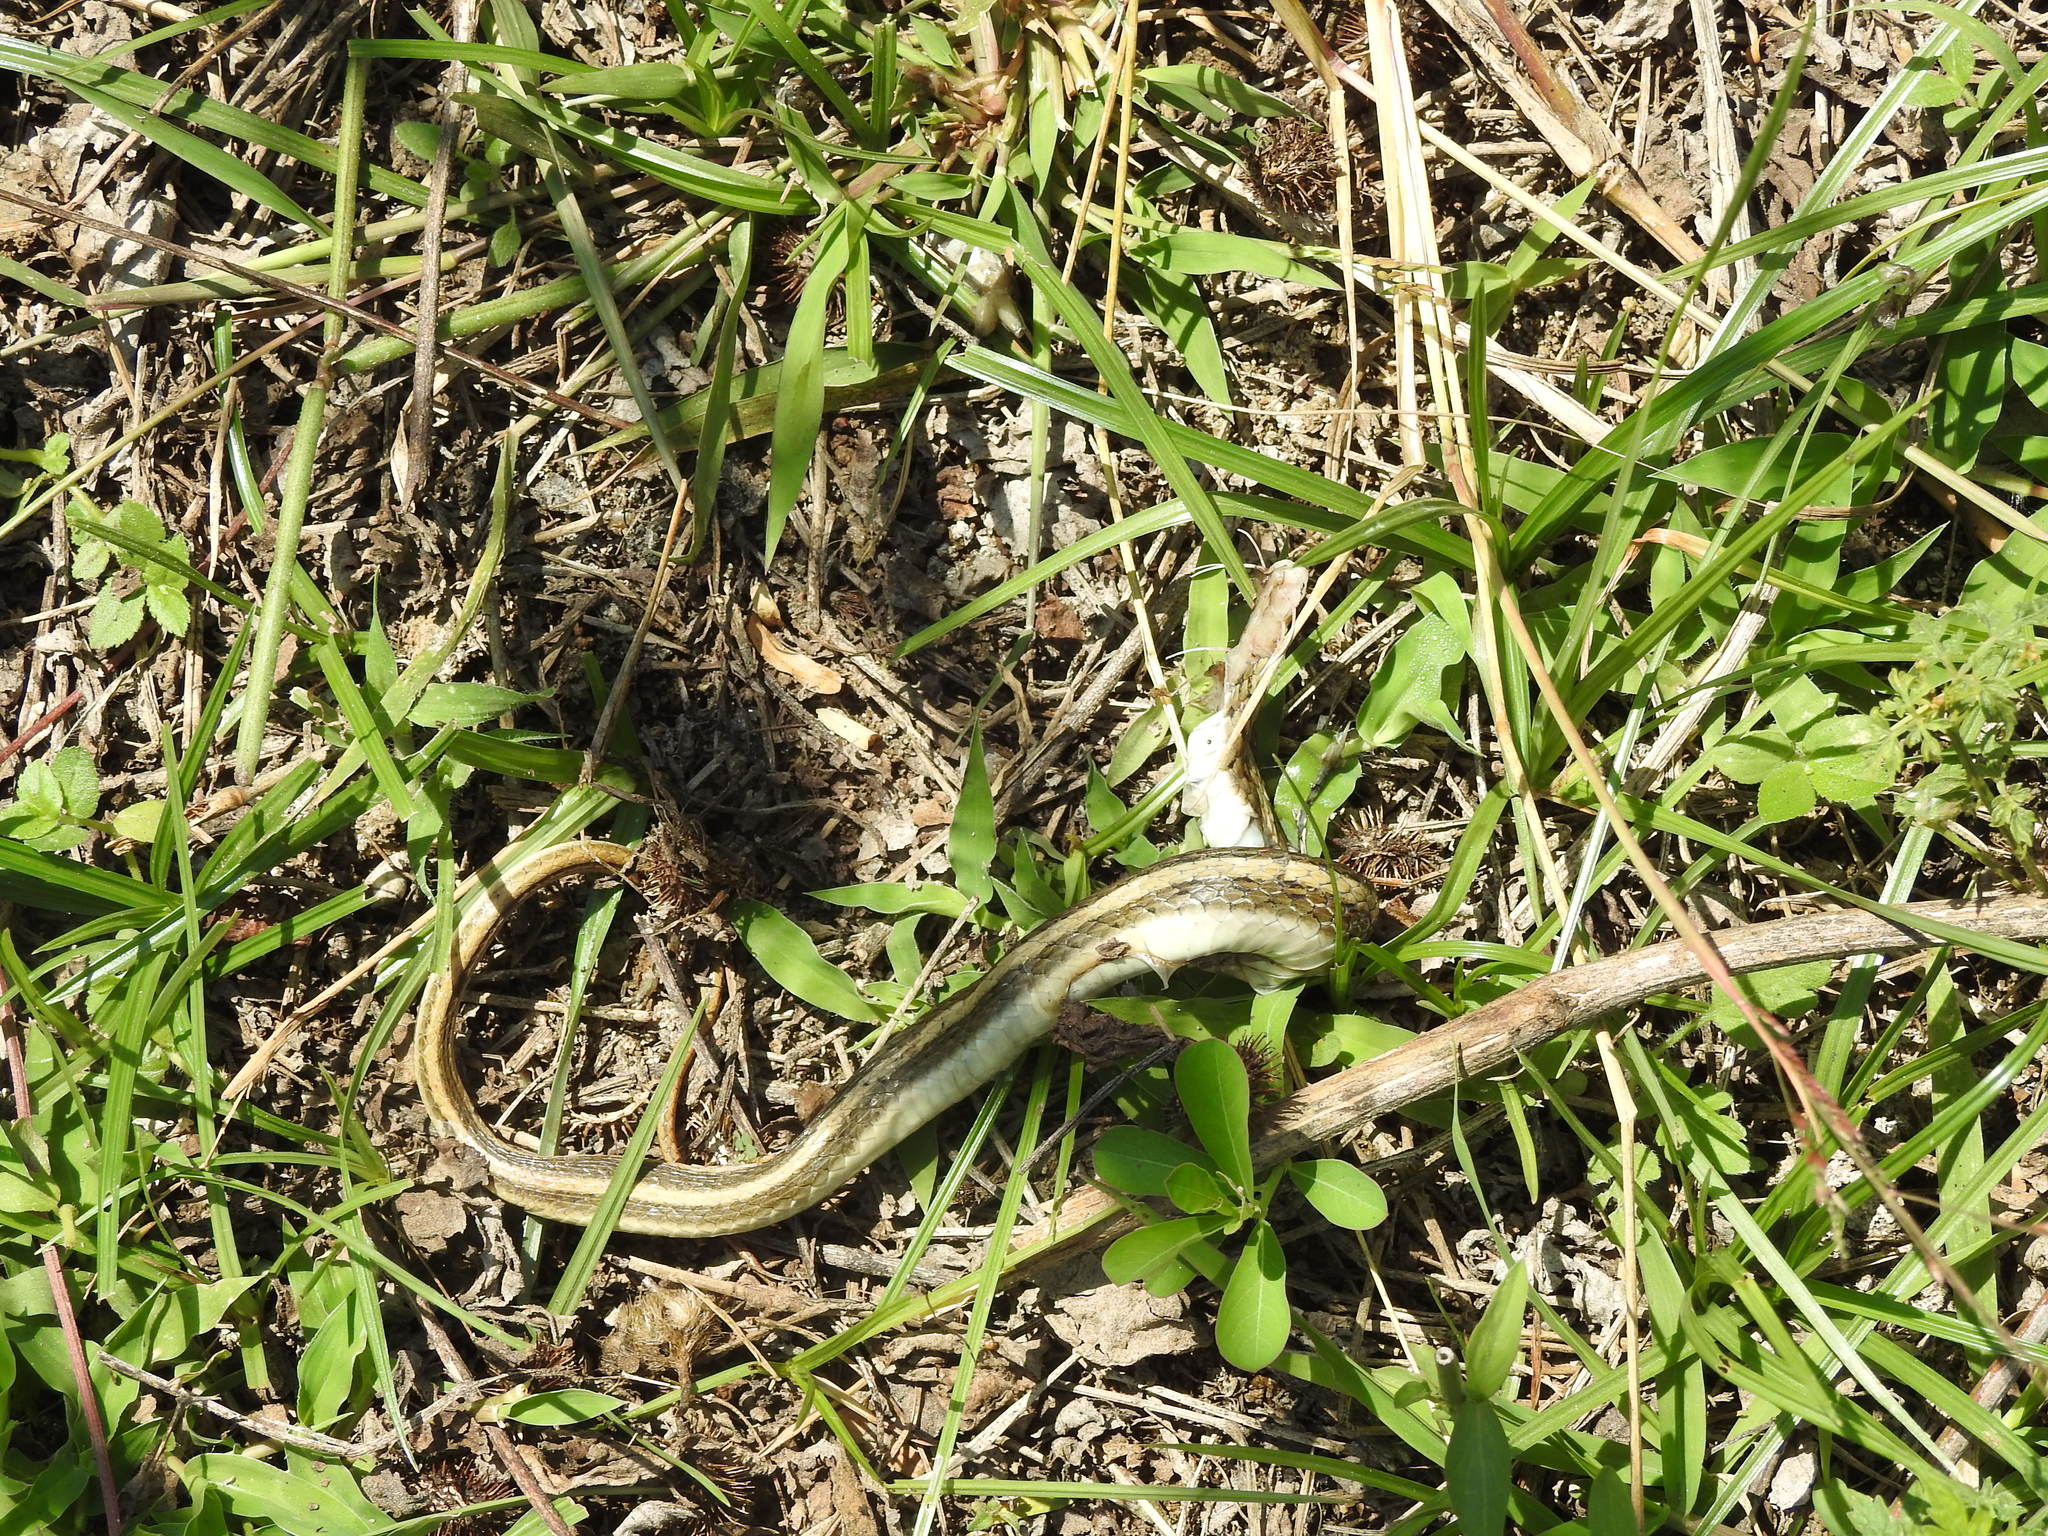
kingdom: Animalia
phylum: Chordata
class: Squamata
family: Colubridae
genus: Amphiesma
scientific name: Amphiesma stolatum
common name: Buff striped keelback
